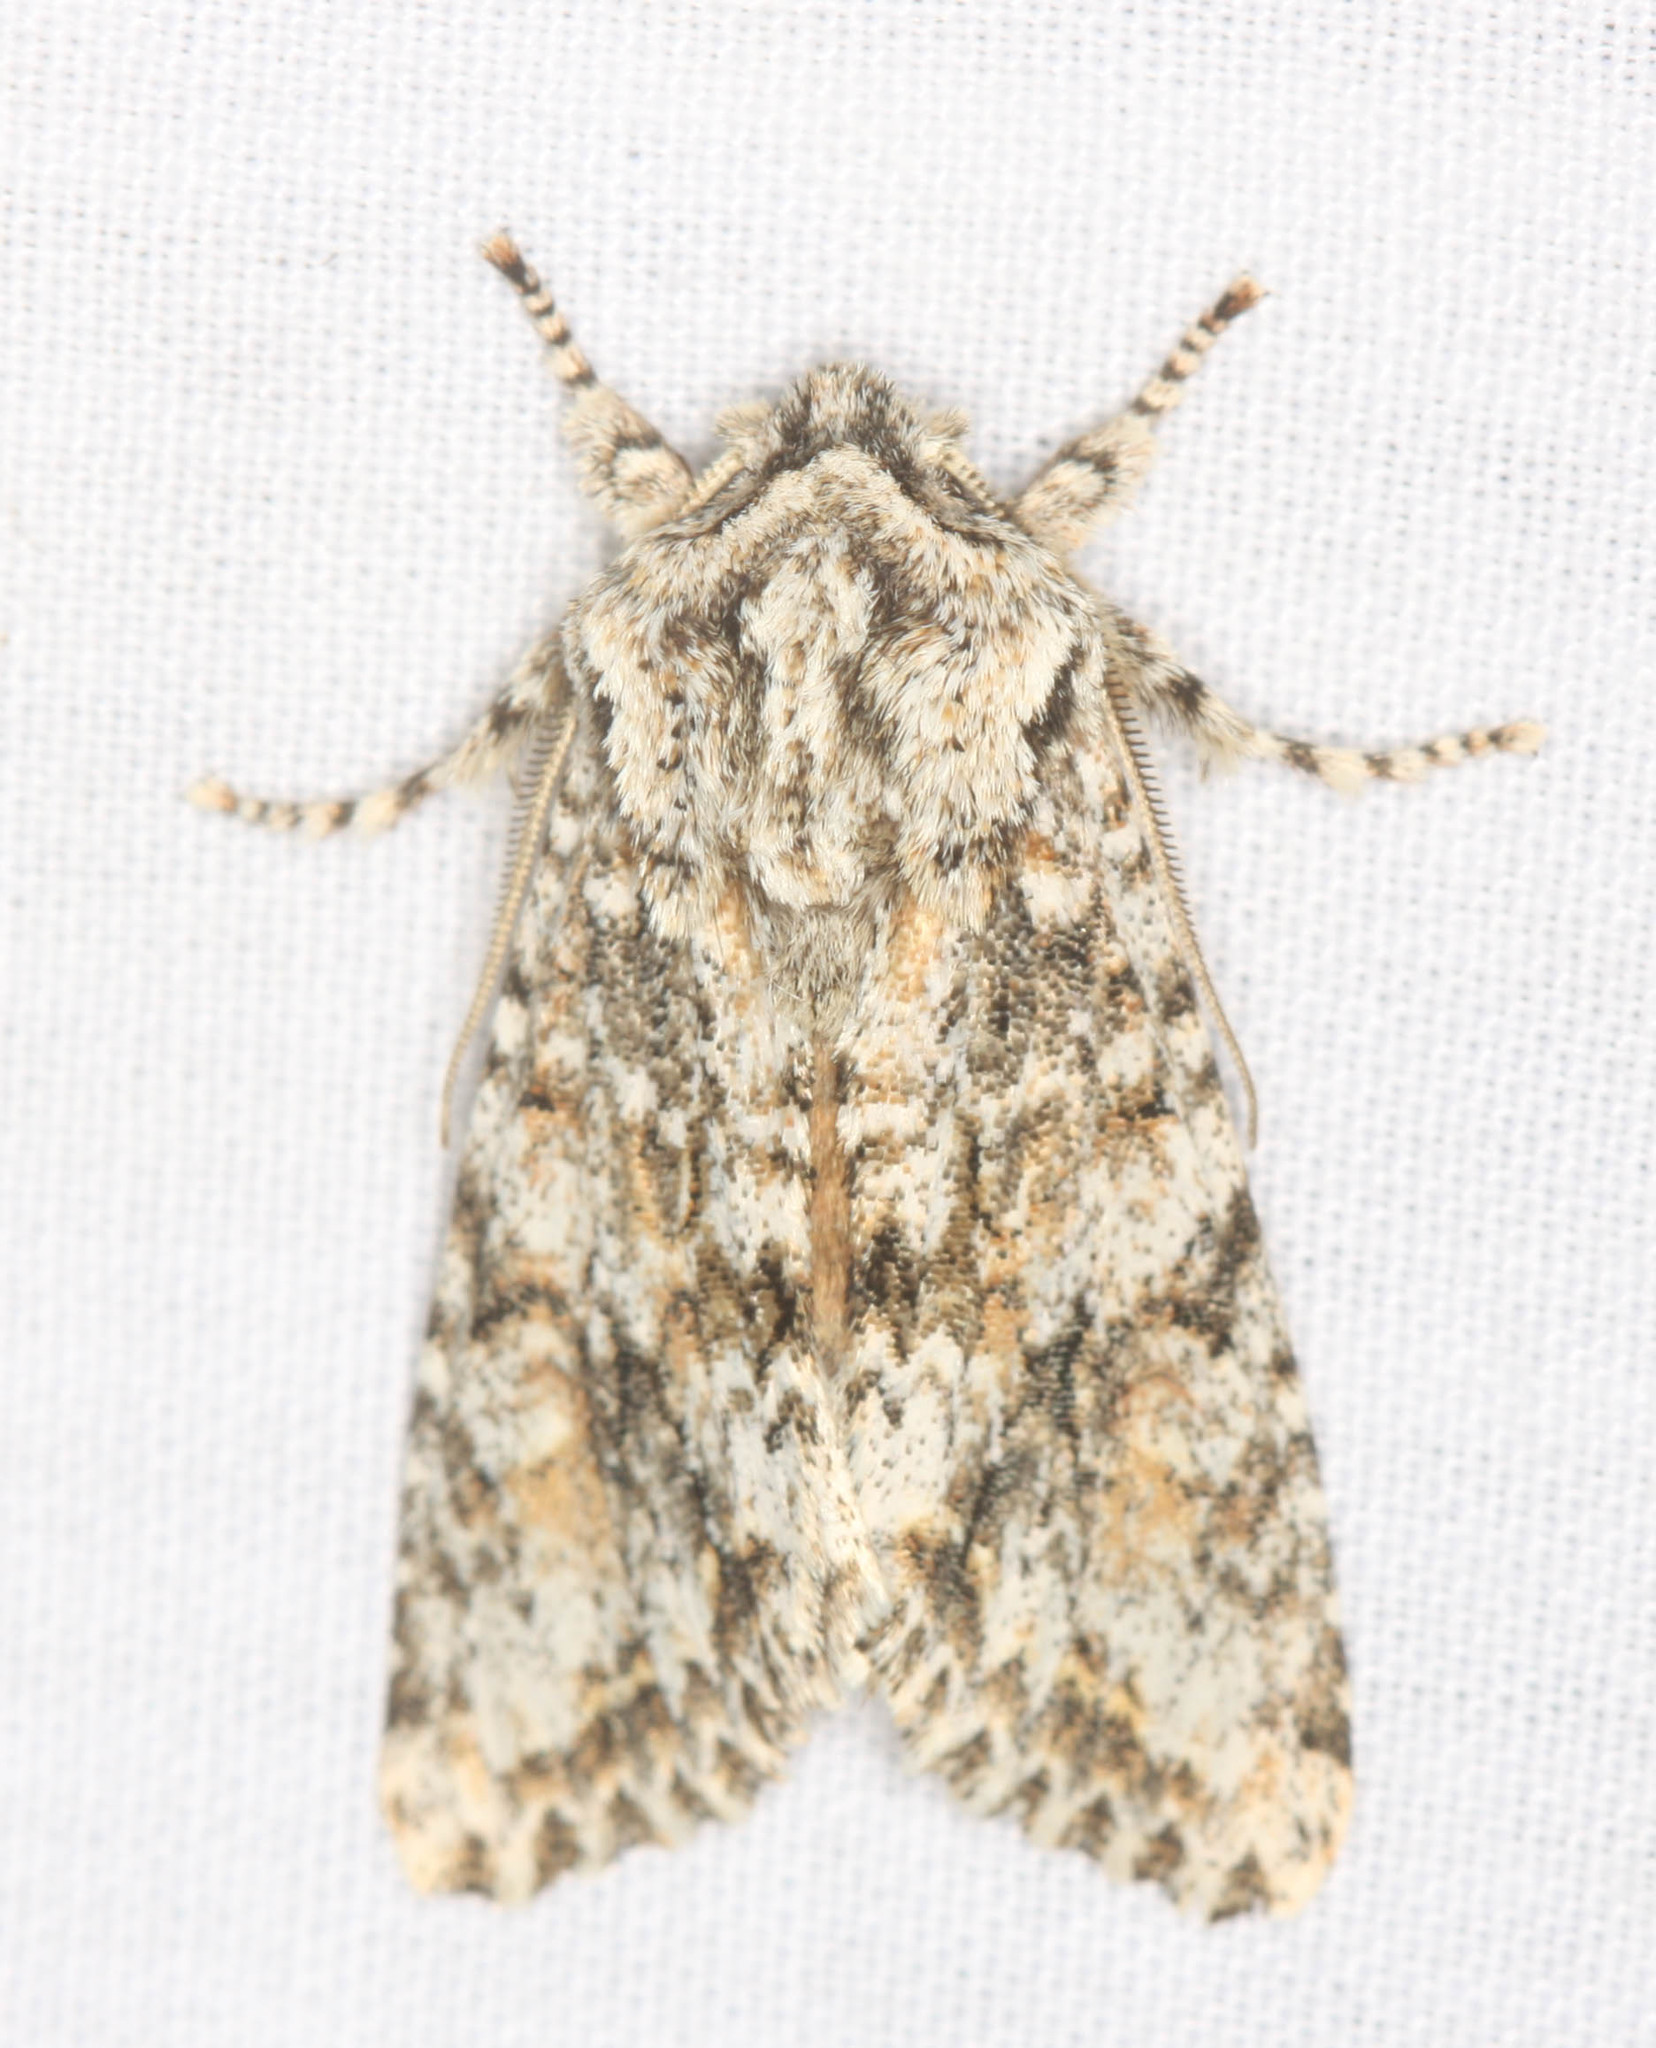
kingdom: Animalia
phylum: Arthropoda
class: Insecta
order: Lepidoptera
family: Noctuidae
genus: Egira
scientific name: Egira cognata
